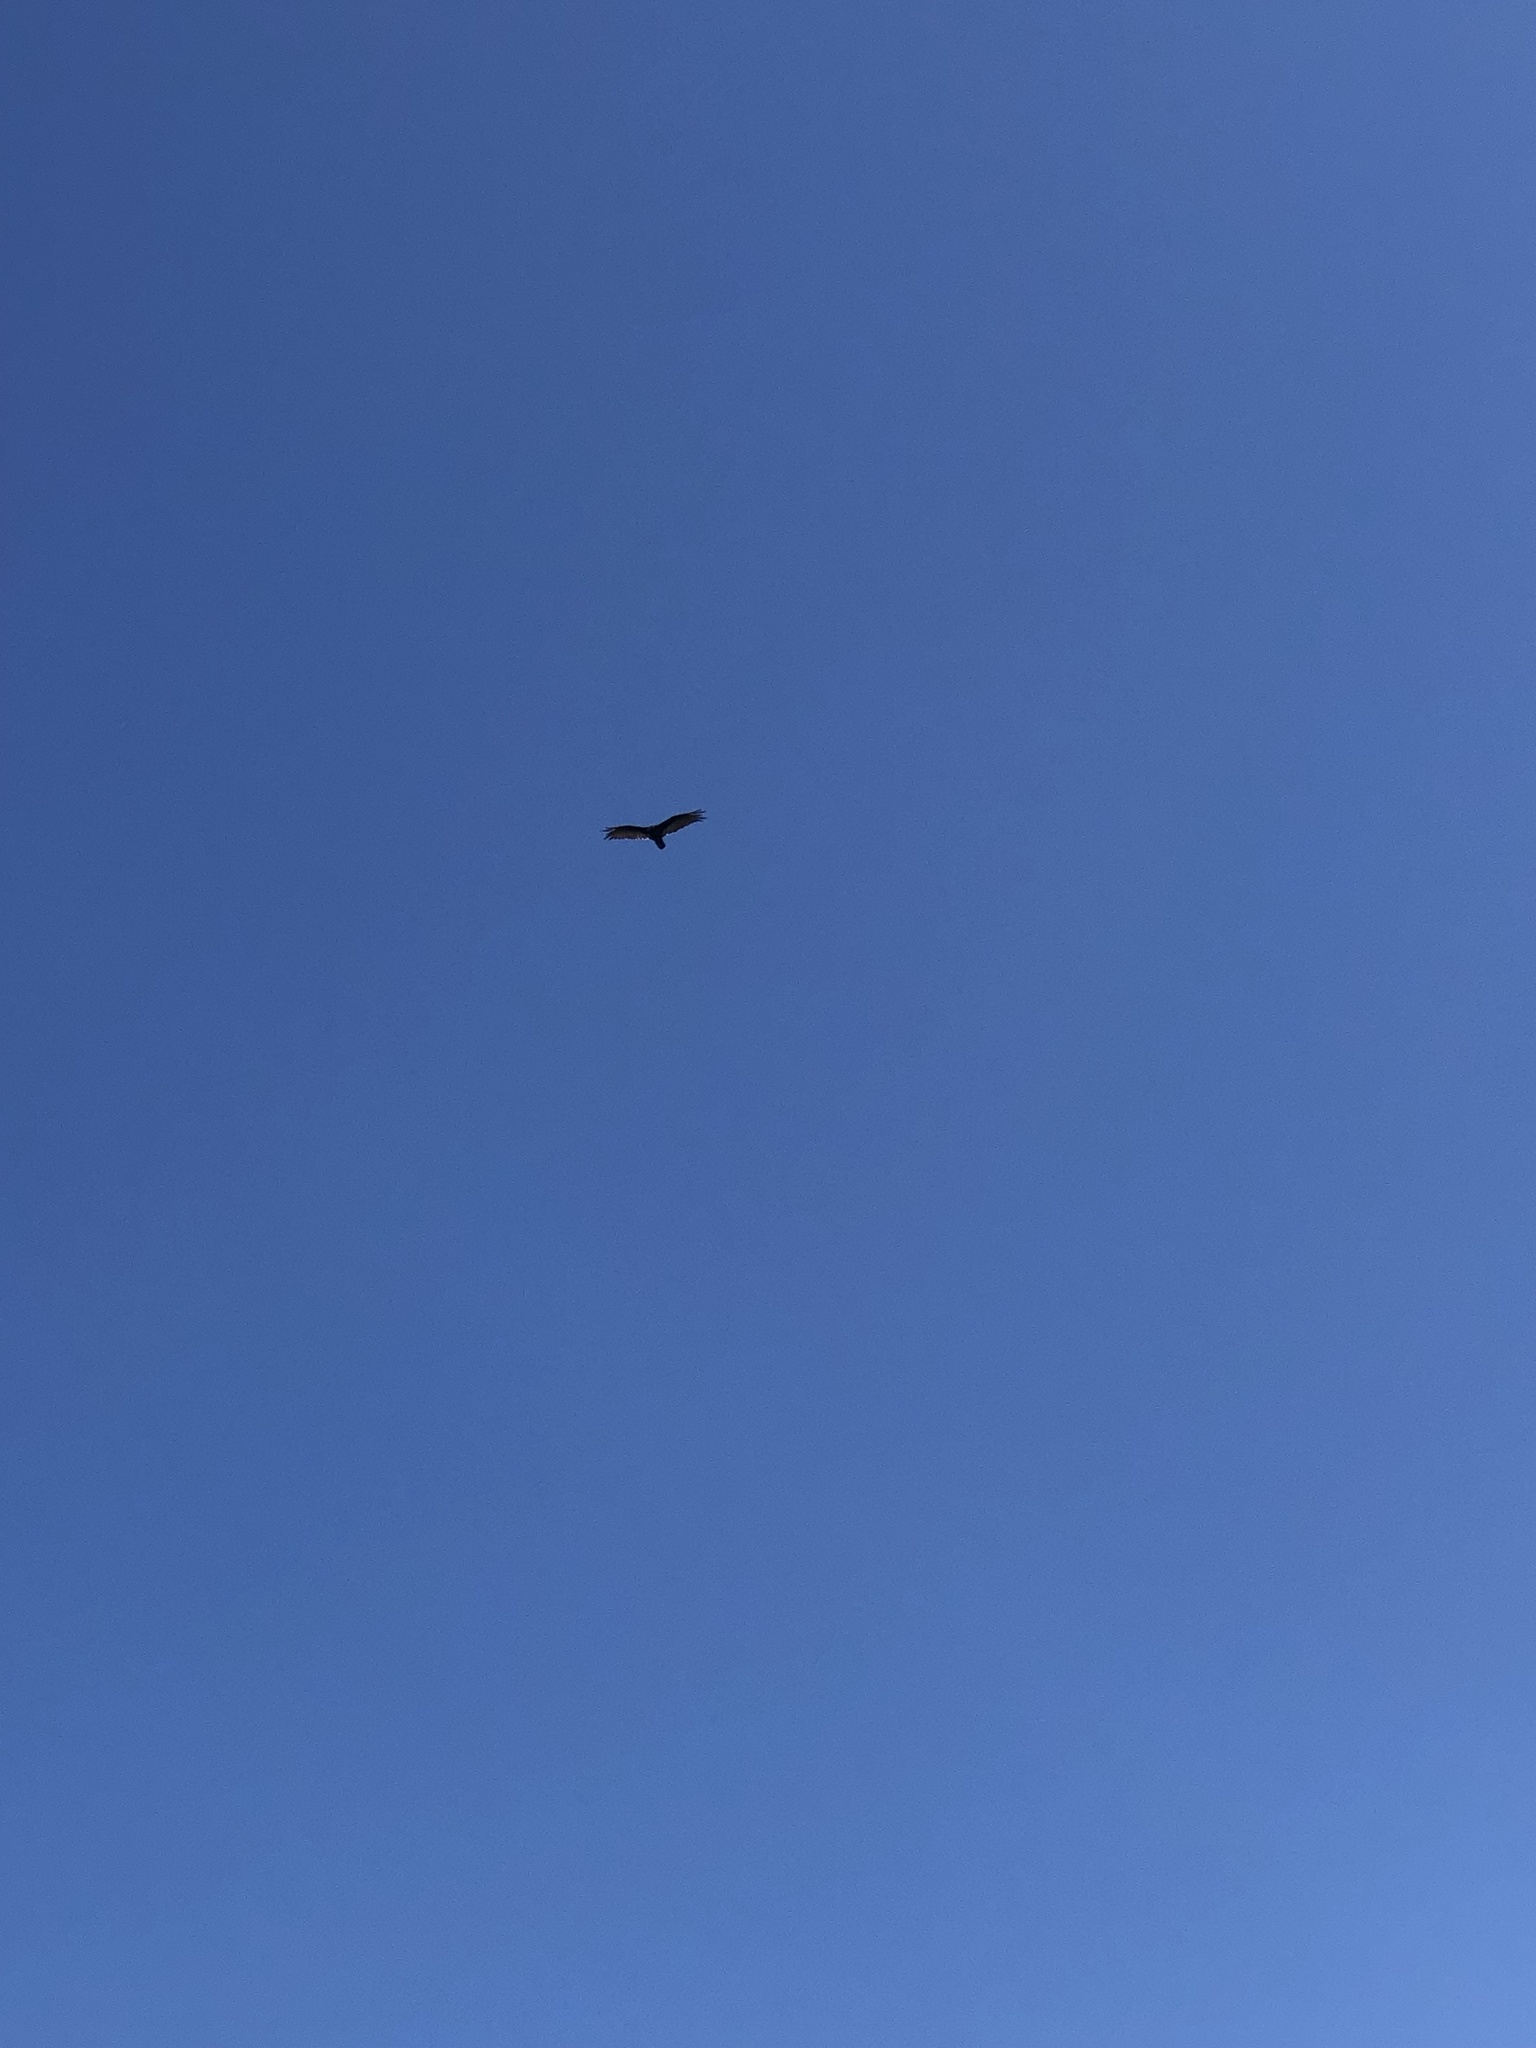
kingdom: Animalia
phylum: Chordata
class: Aves
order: Accipitriformes
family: Cathartidae
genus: Cathartes
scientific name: Cathartes aura
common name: Turkey vulture
